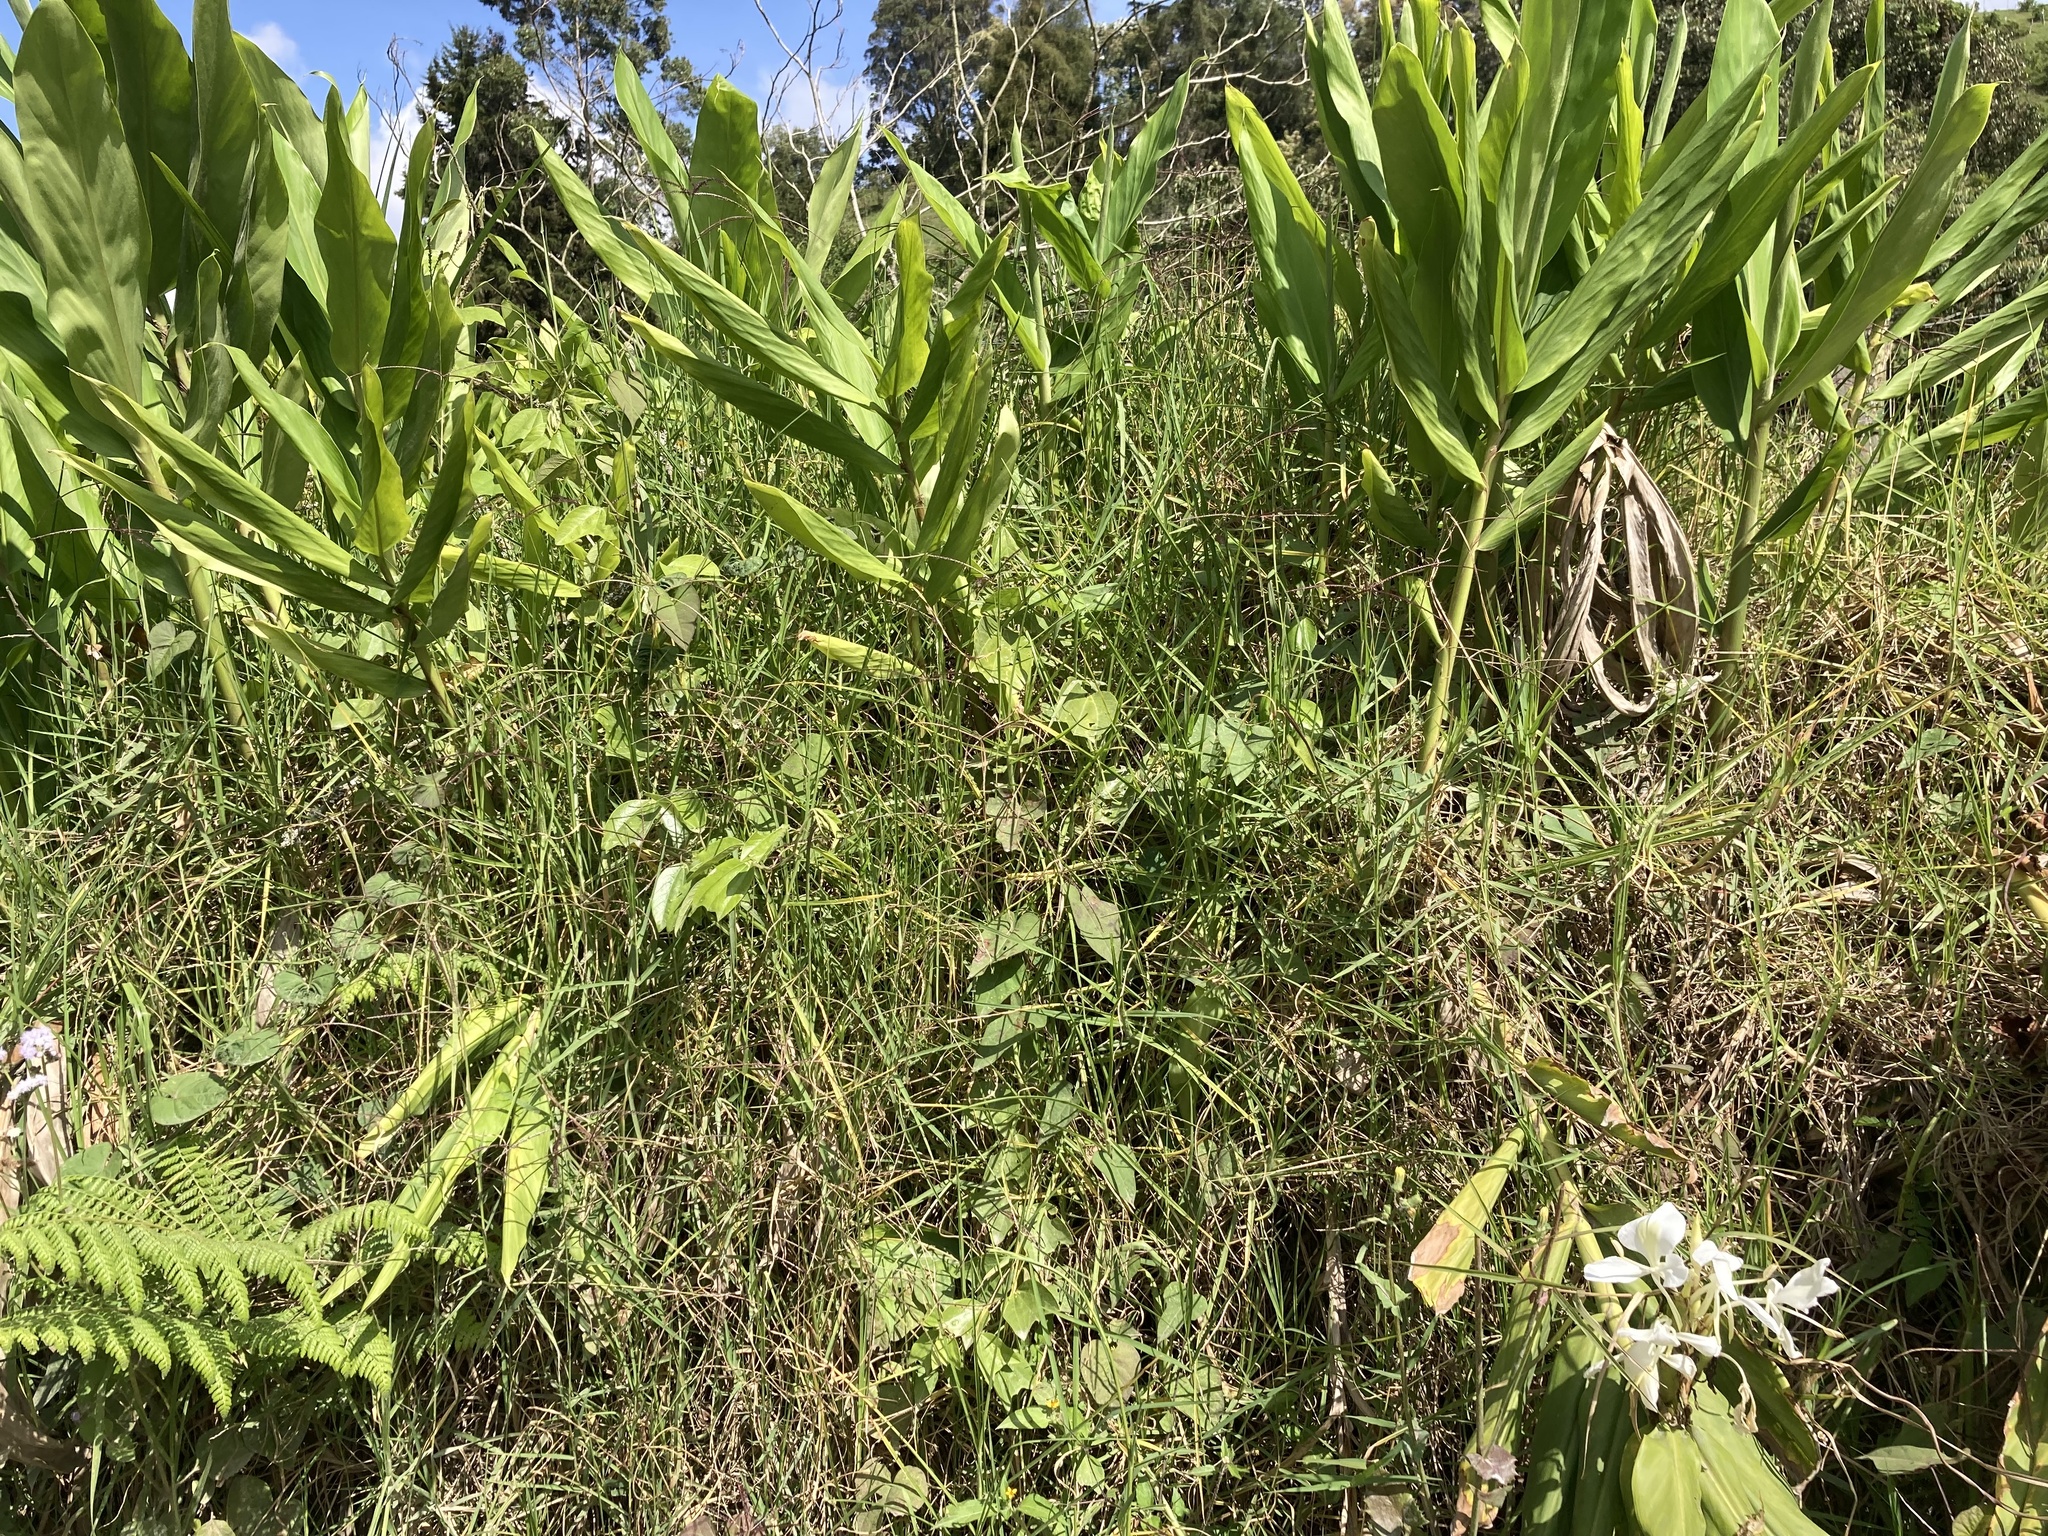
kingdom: Plantae
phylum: Tracheophyta
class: Liliopsida
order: Zingiberales
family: Zingiberaceae
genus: Hedychium
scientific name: Hedychium coronarium
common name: White garland-lily
